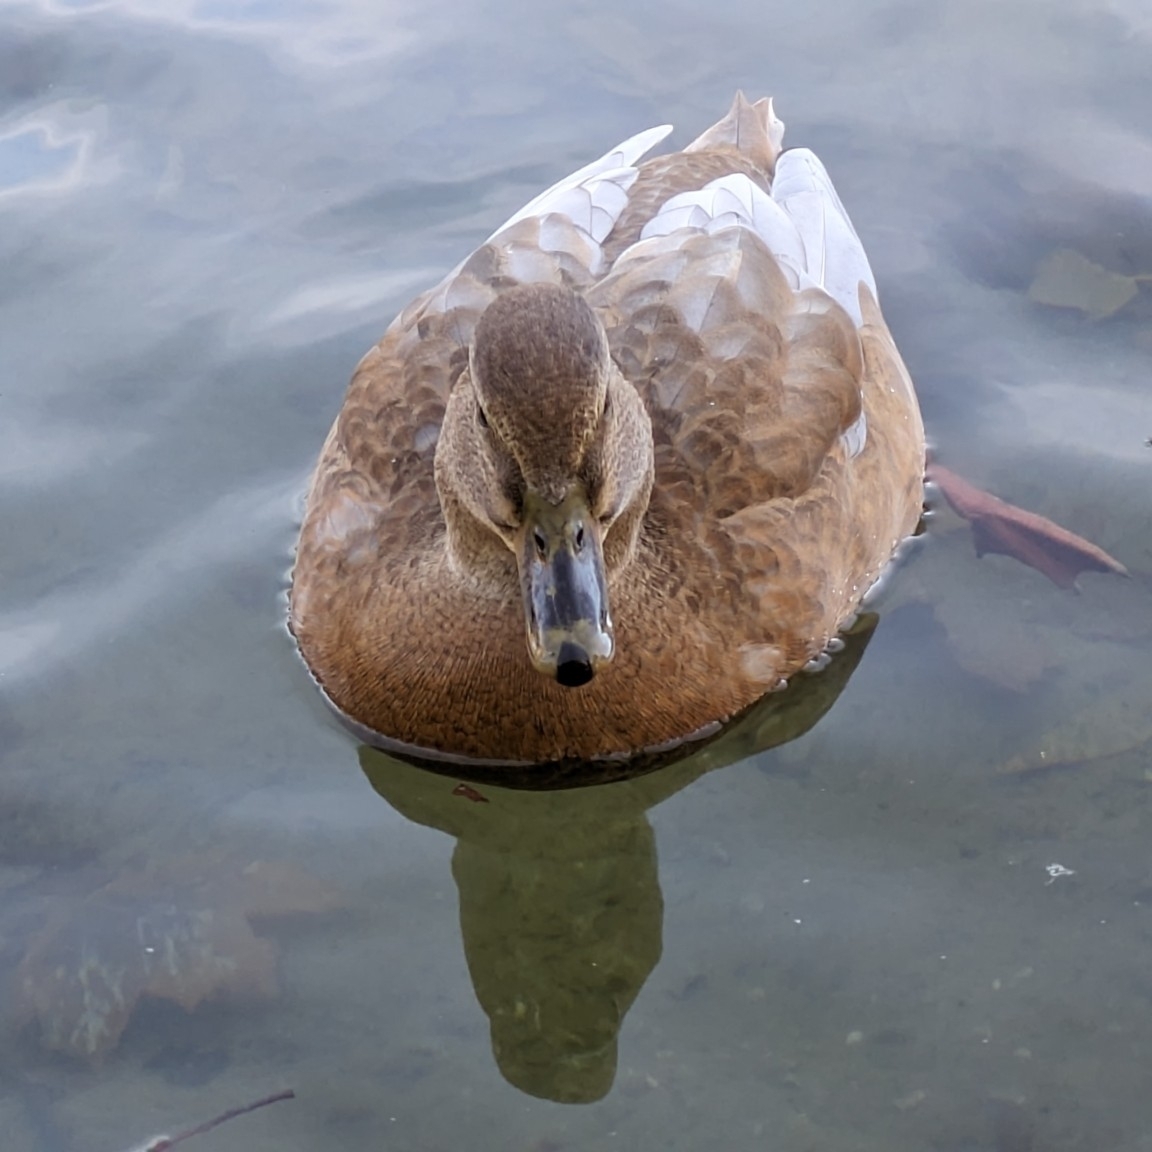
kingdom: Animalia
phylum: Chordata
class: Aves
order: Anseriformes
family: Anatidae
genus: Anas
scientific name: Anas platyrhynchos
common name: Mallard
